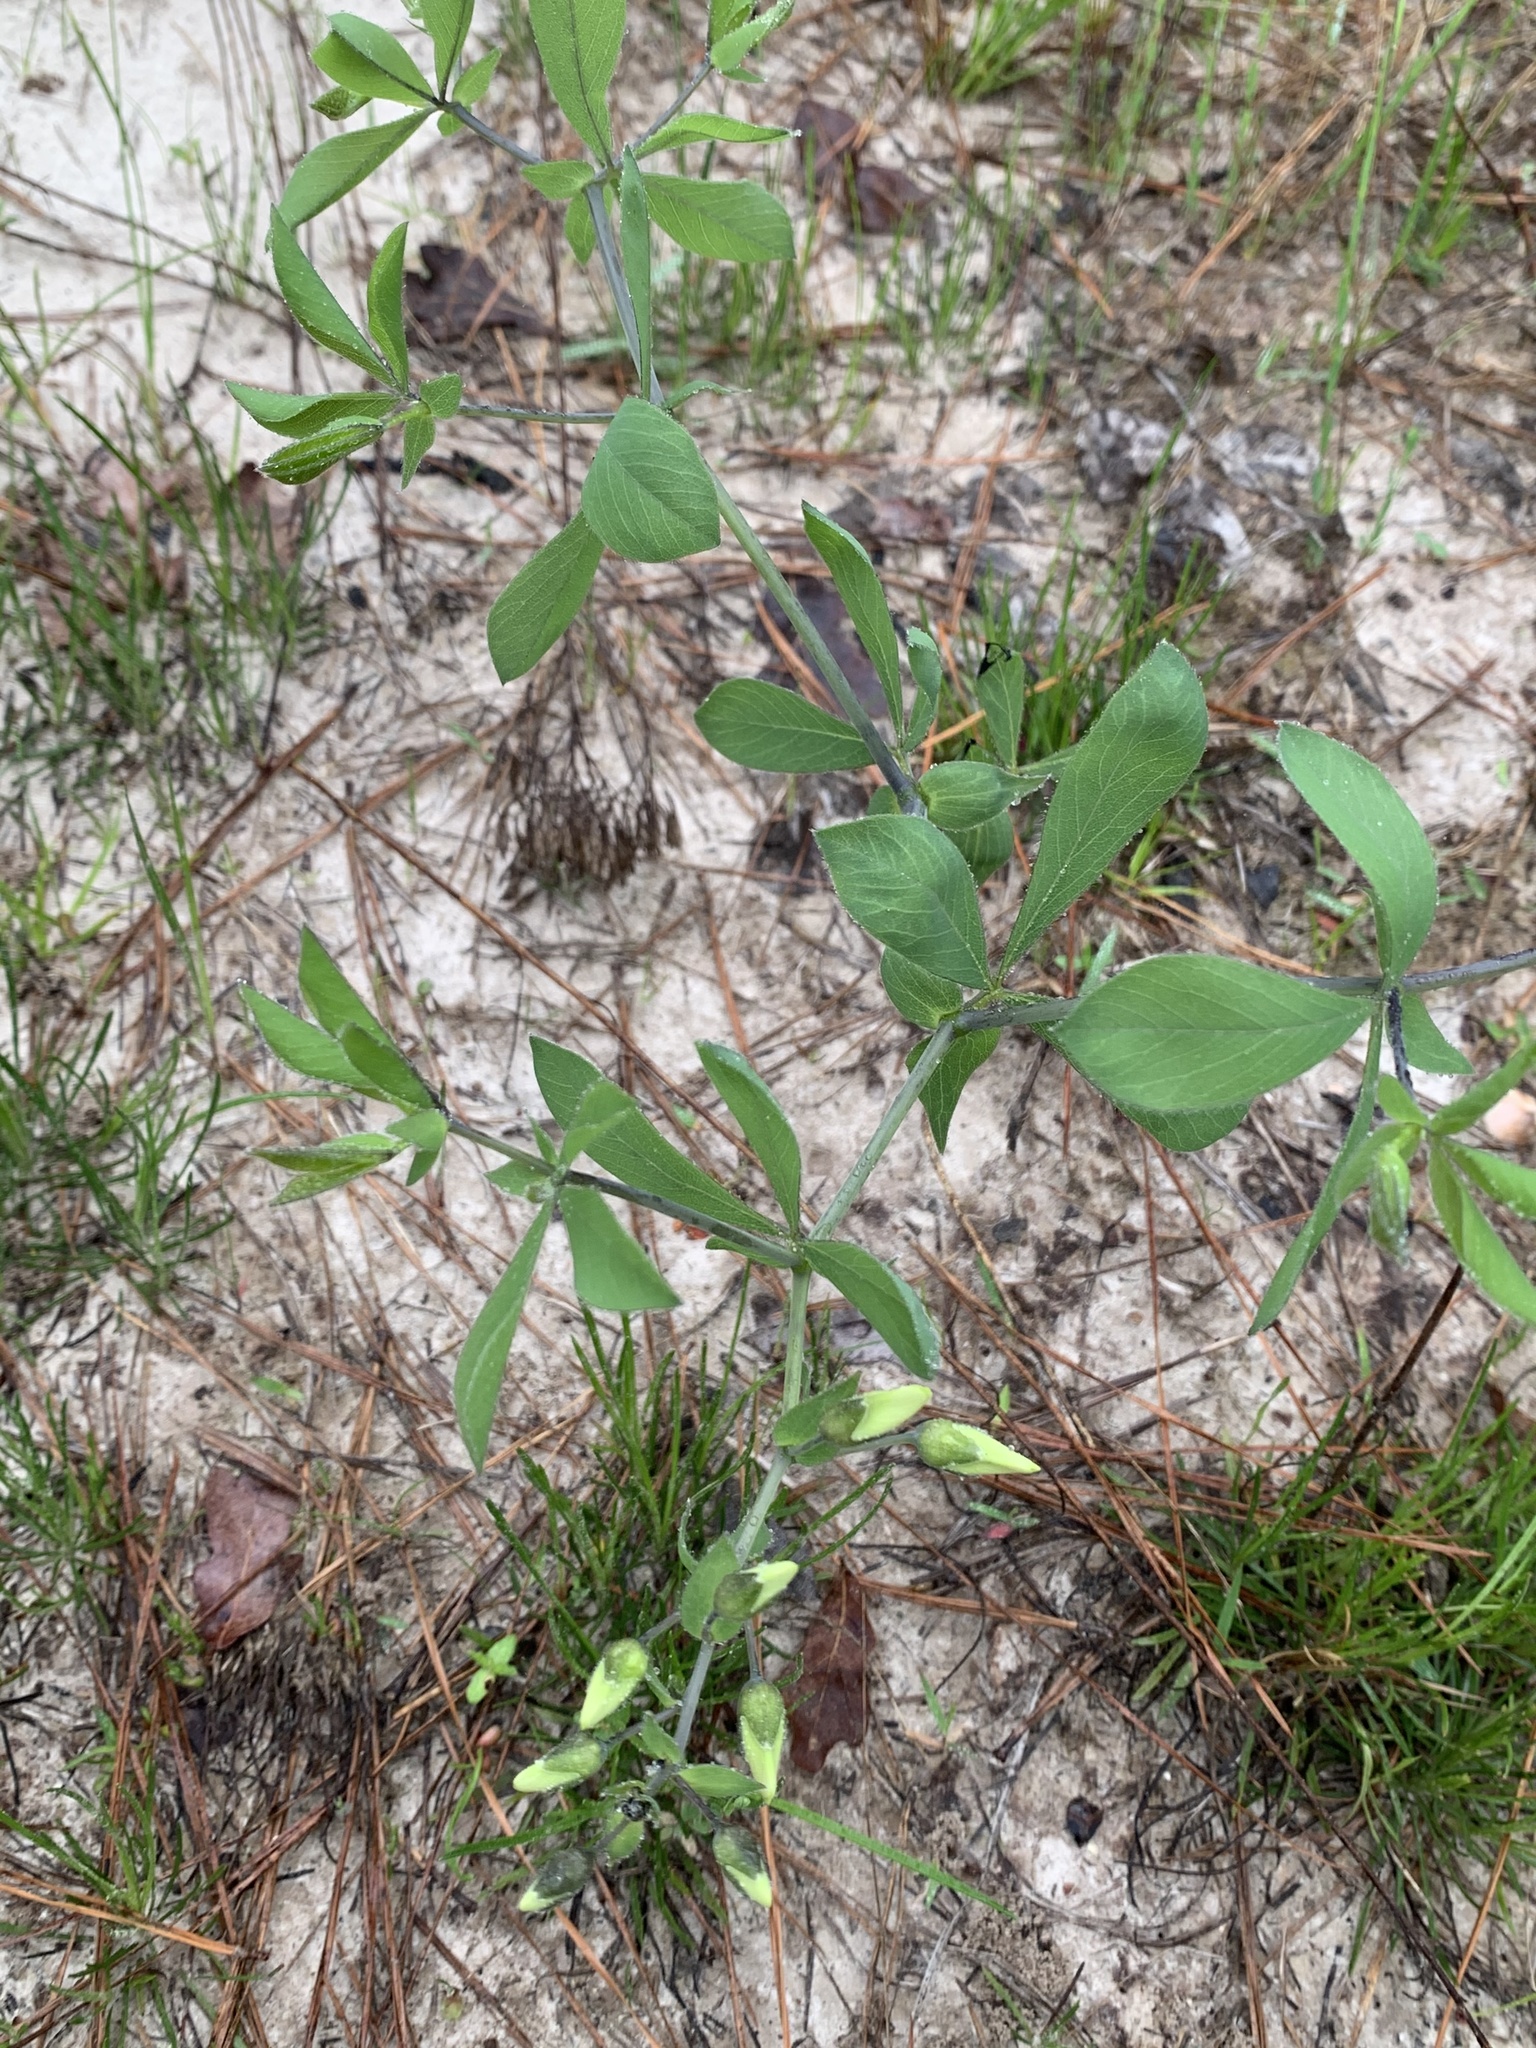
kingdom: Plantae
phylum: Tracheophyta
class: Magnoliopsida
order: Fabales
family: Fabaceae
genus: Baptisia
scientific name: Baptisia bracteata
